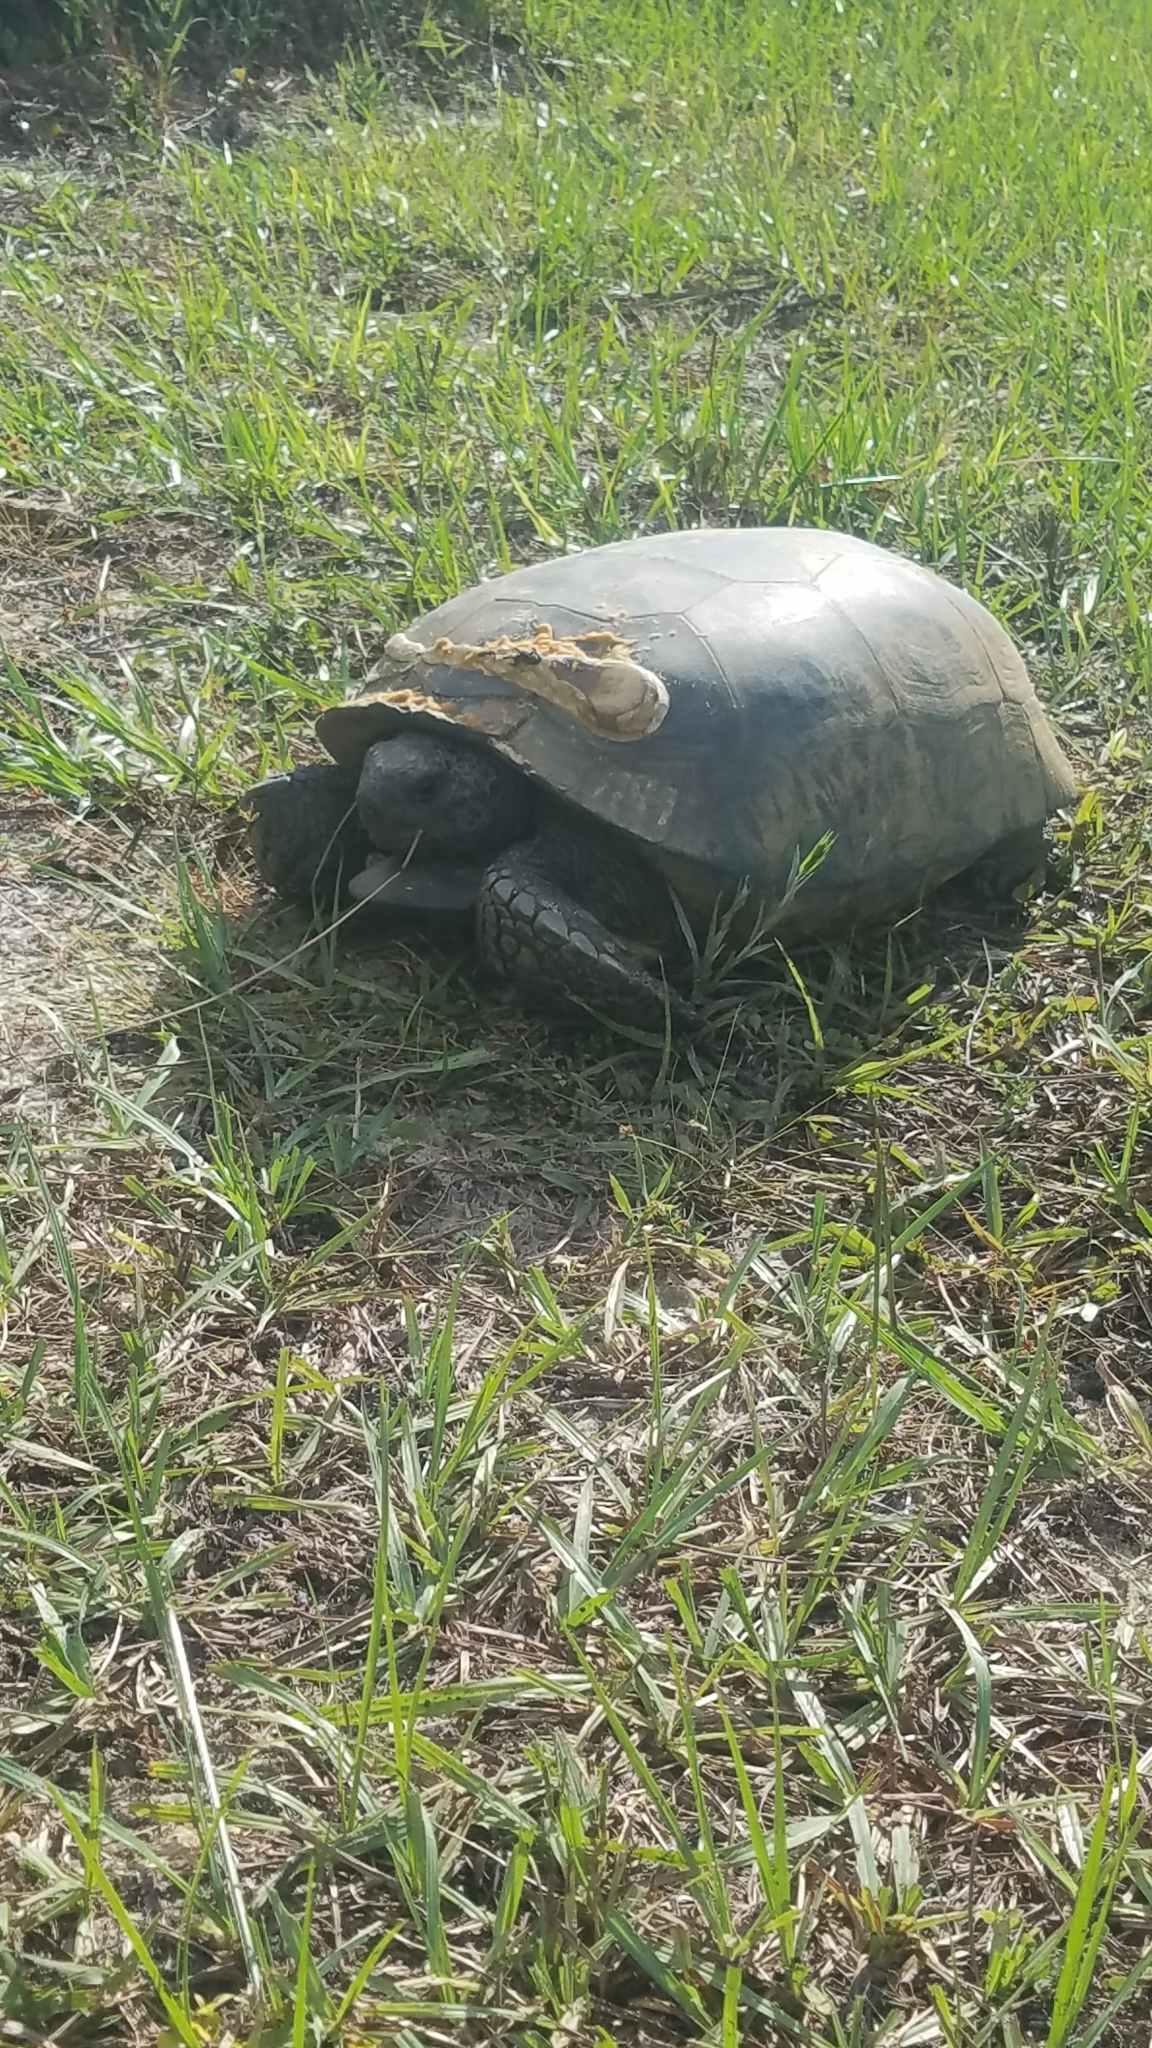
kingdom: Animalia
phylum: Chordata
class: Testudines
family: Testudinidae
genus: Gopherus
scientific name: Gopherus polyphemus
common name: Florida gopher tortoise
